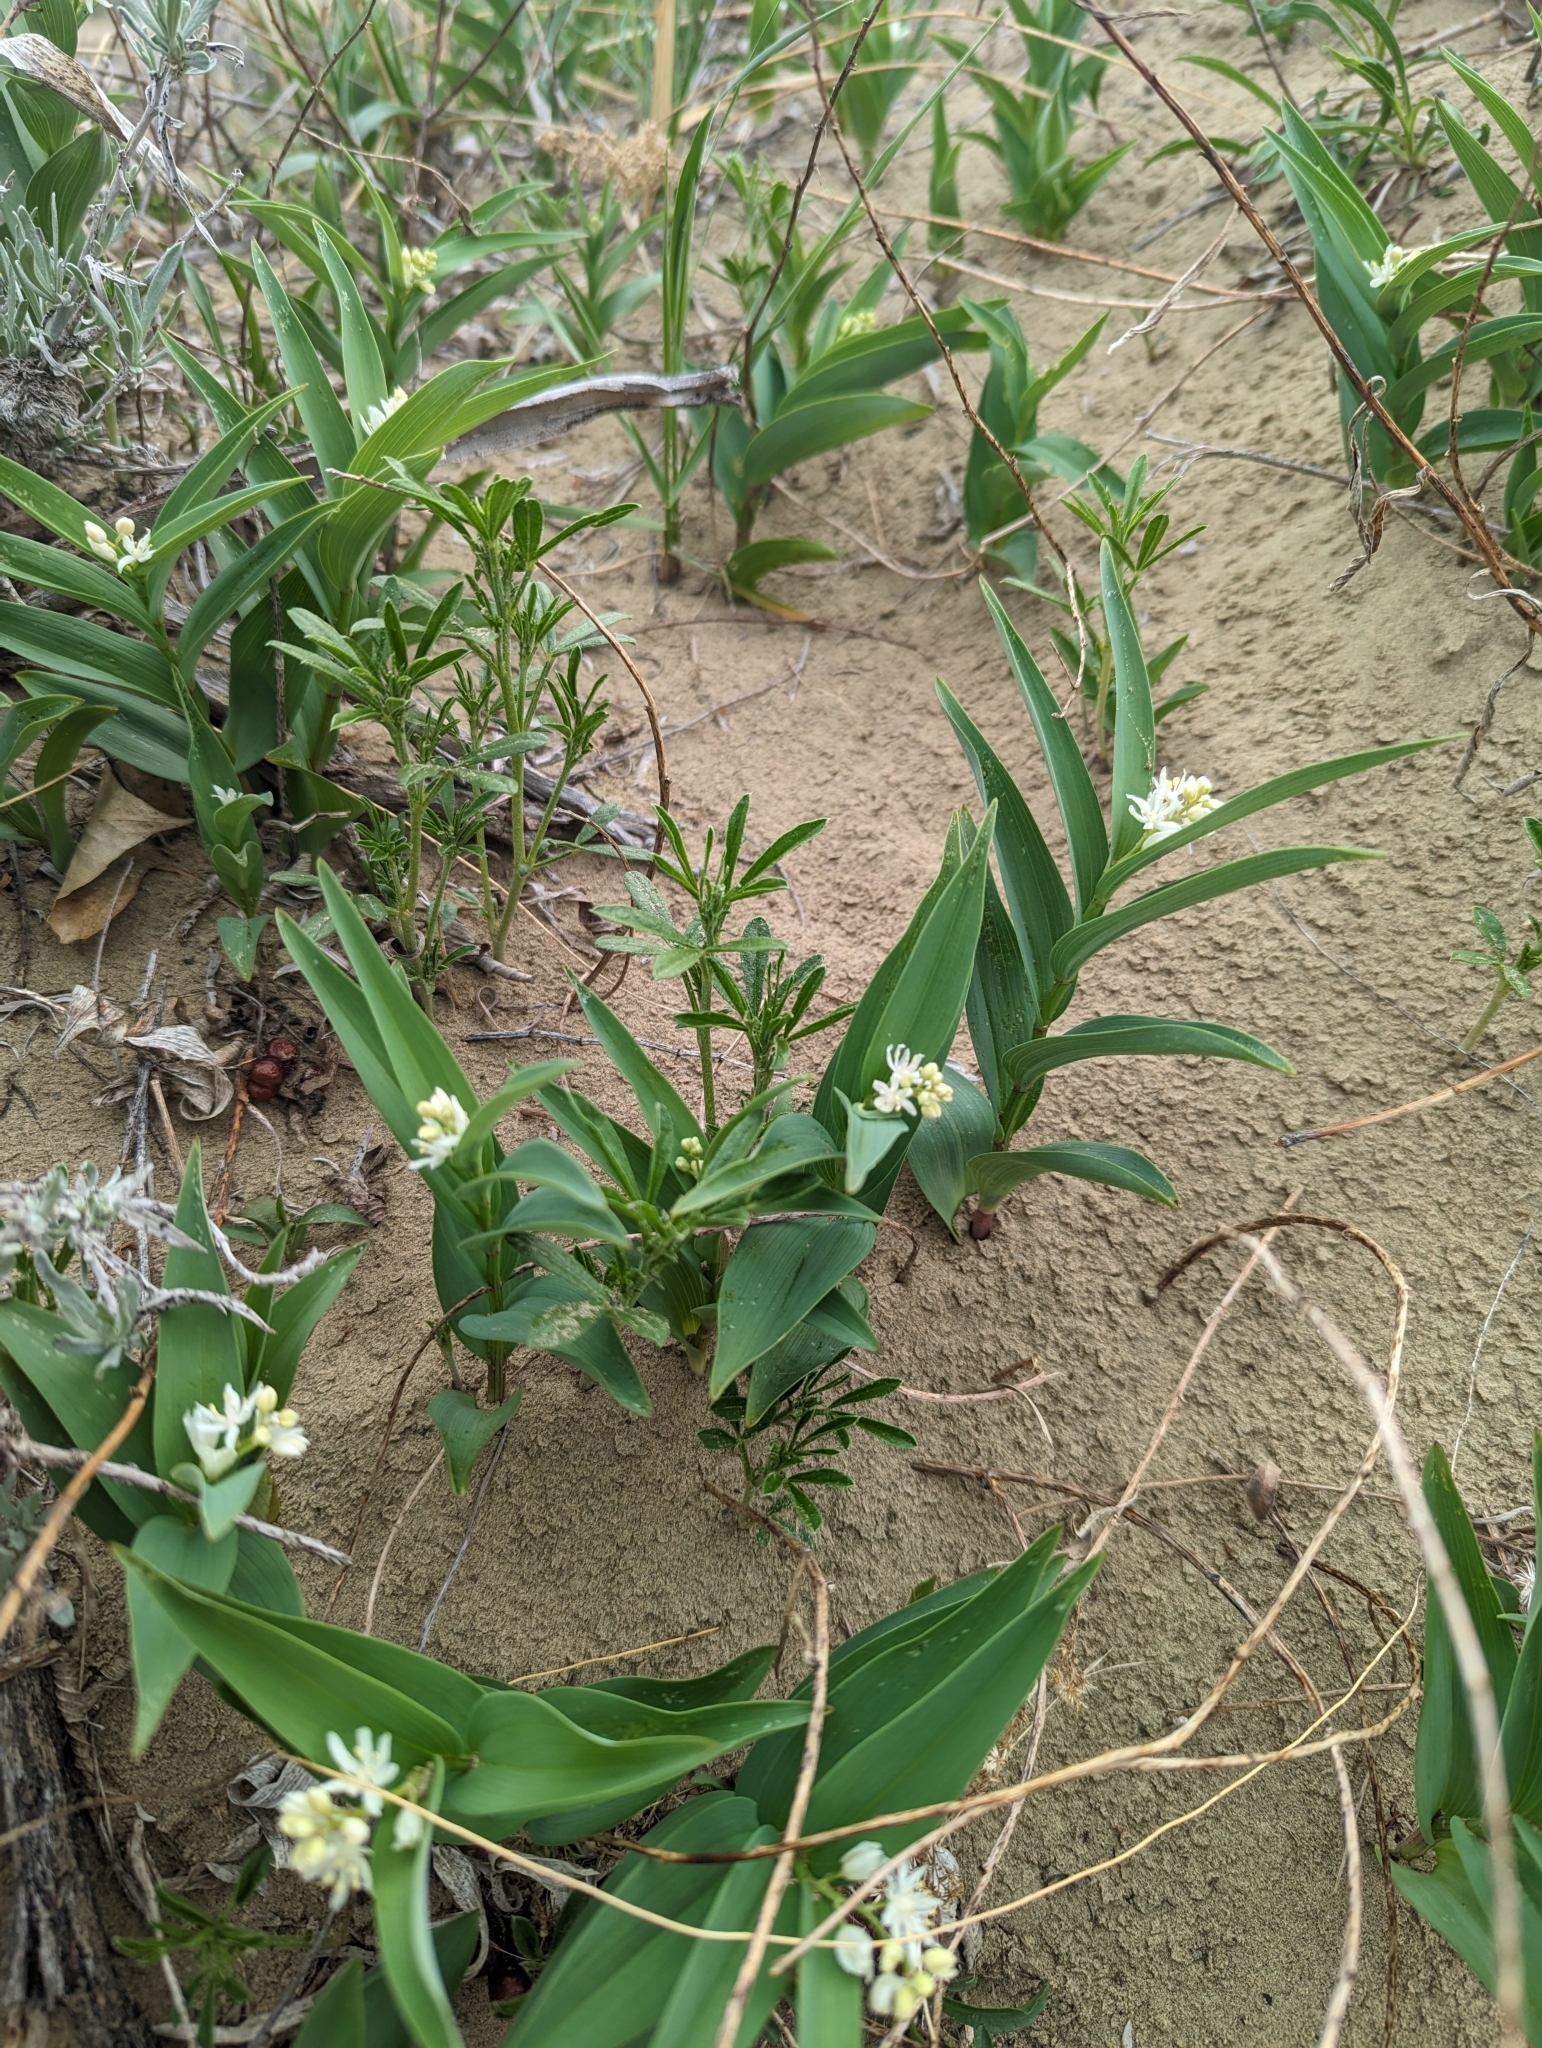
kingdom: Plantae
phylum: Tracheophyta
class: Liliopsida
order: Asparagales
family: Asparagaceae
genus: Maianthemum
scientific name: Maianthemum stellatum
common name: Little false solomon's seal
